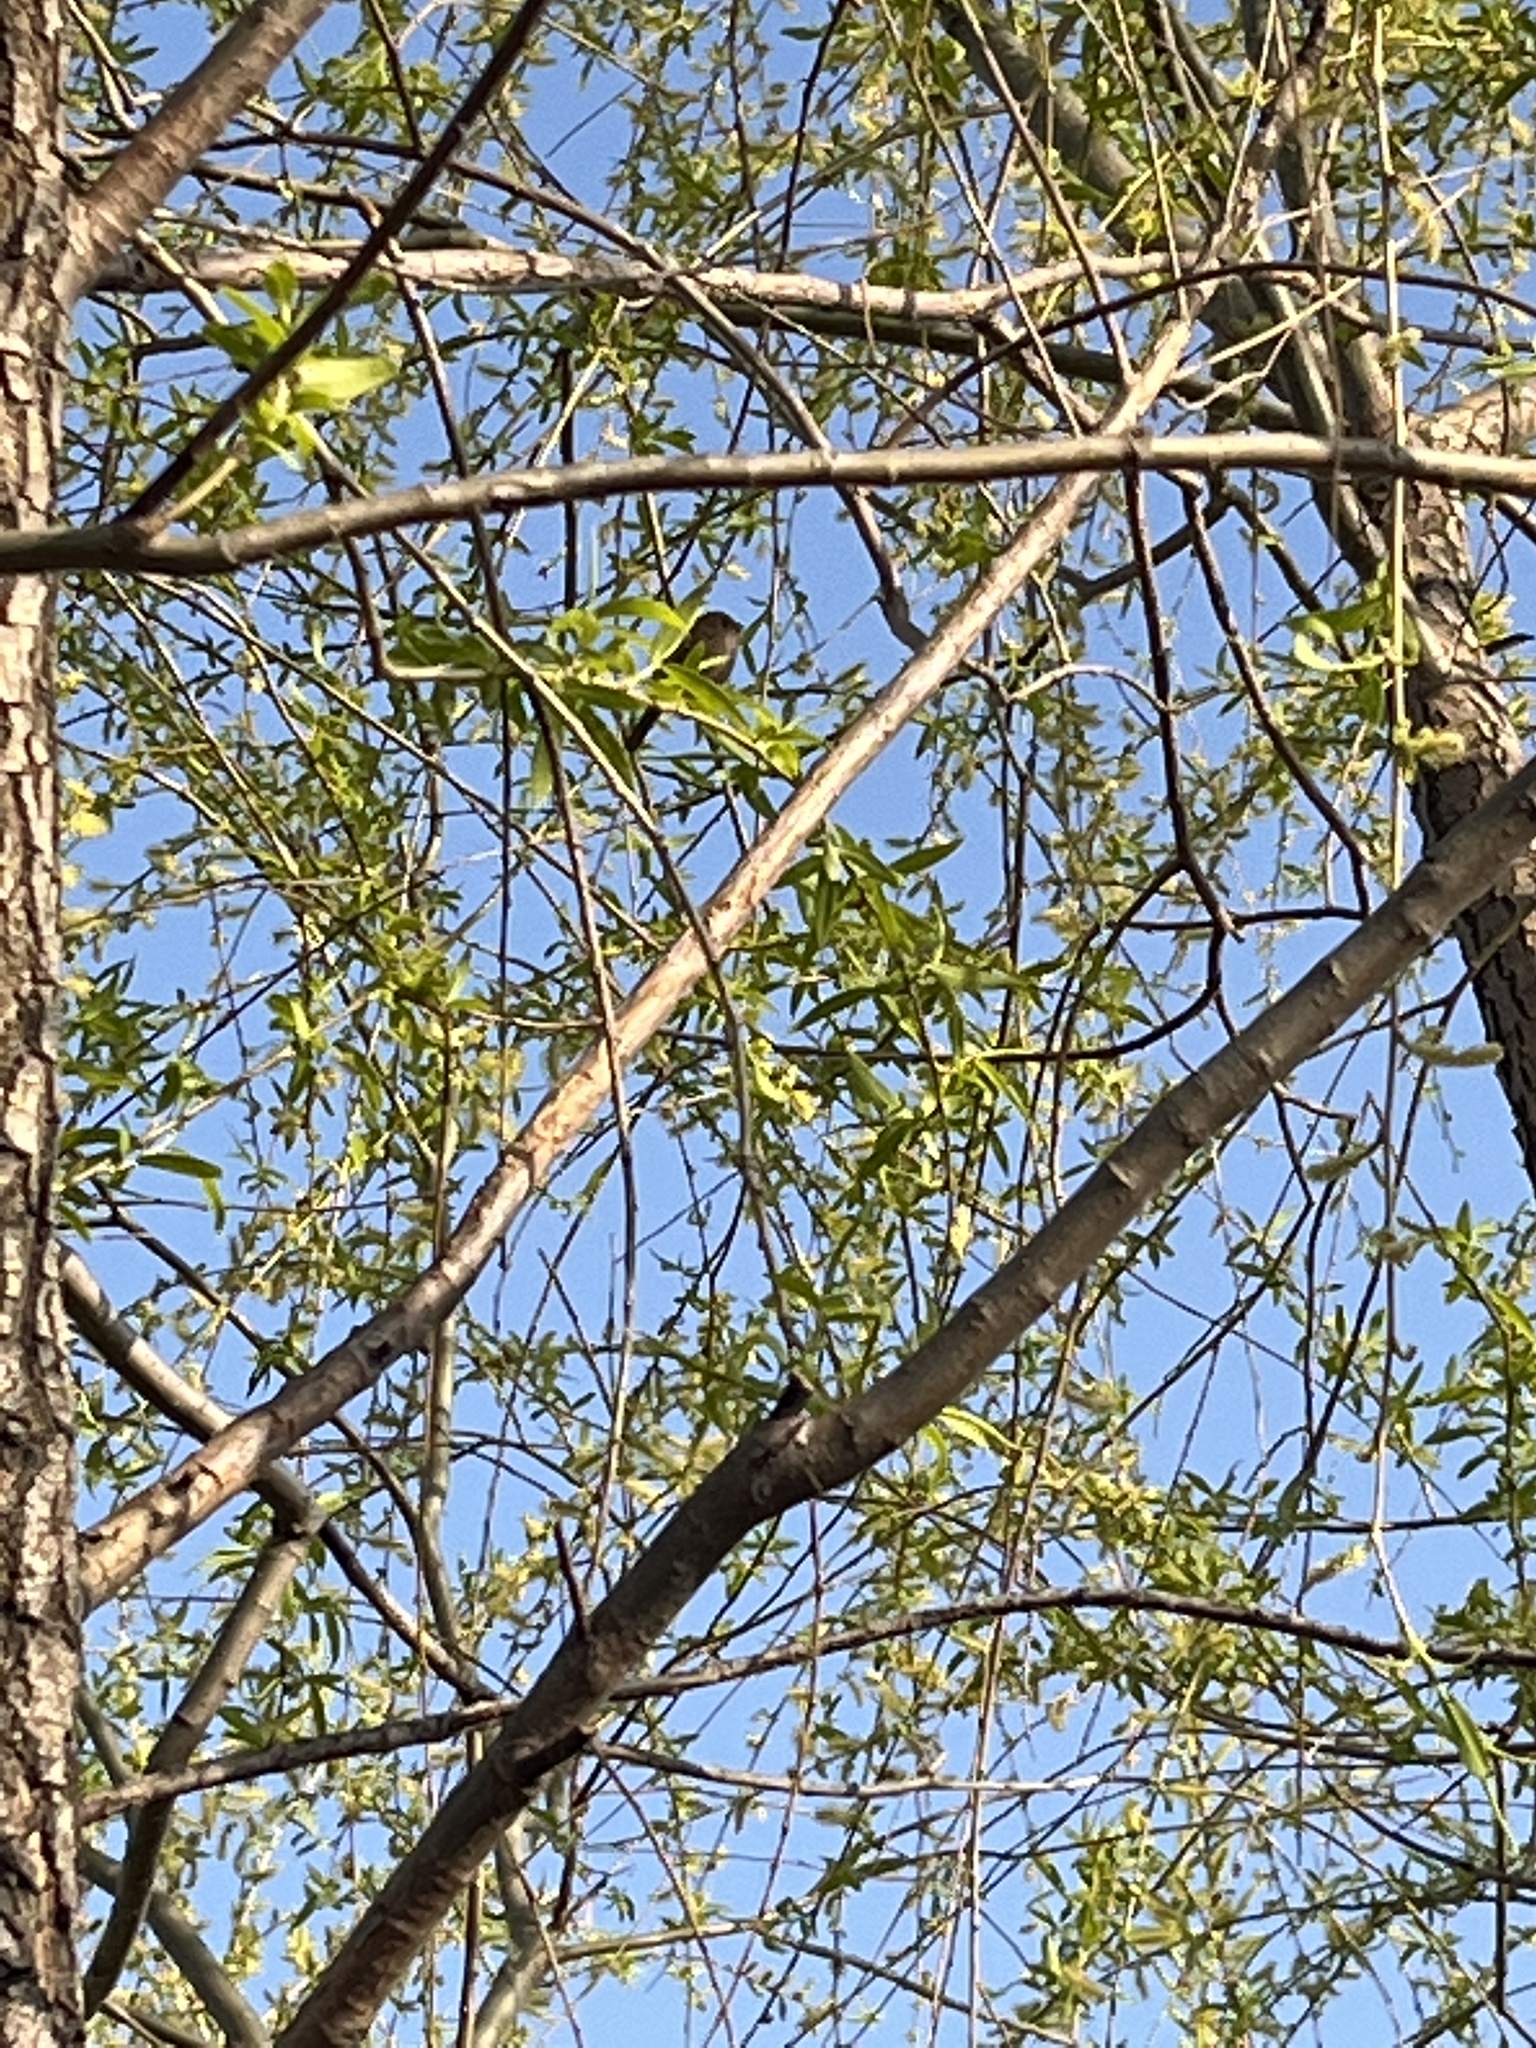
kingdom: Animalia
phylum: Chordata
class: Aves
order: Passeriformes
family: Sylviidae
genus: Sinosuthora
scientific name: Sinosuthora webbiana
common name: Vinous-throated parrotbill
